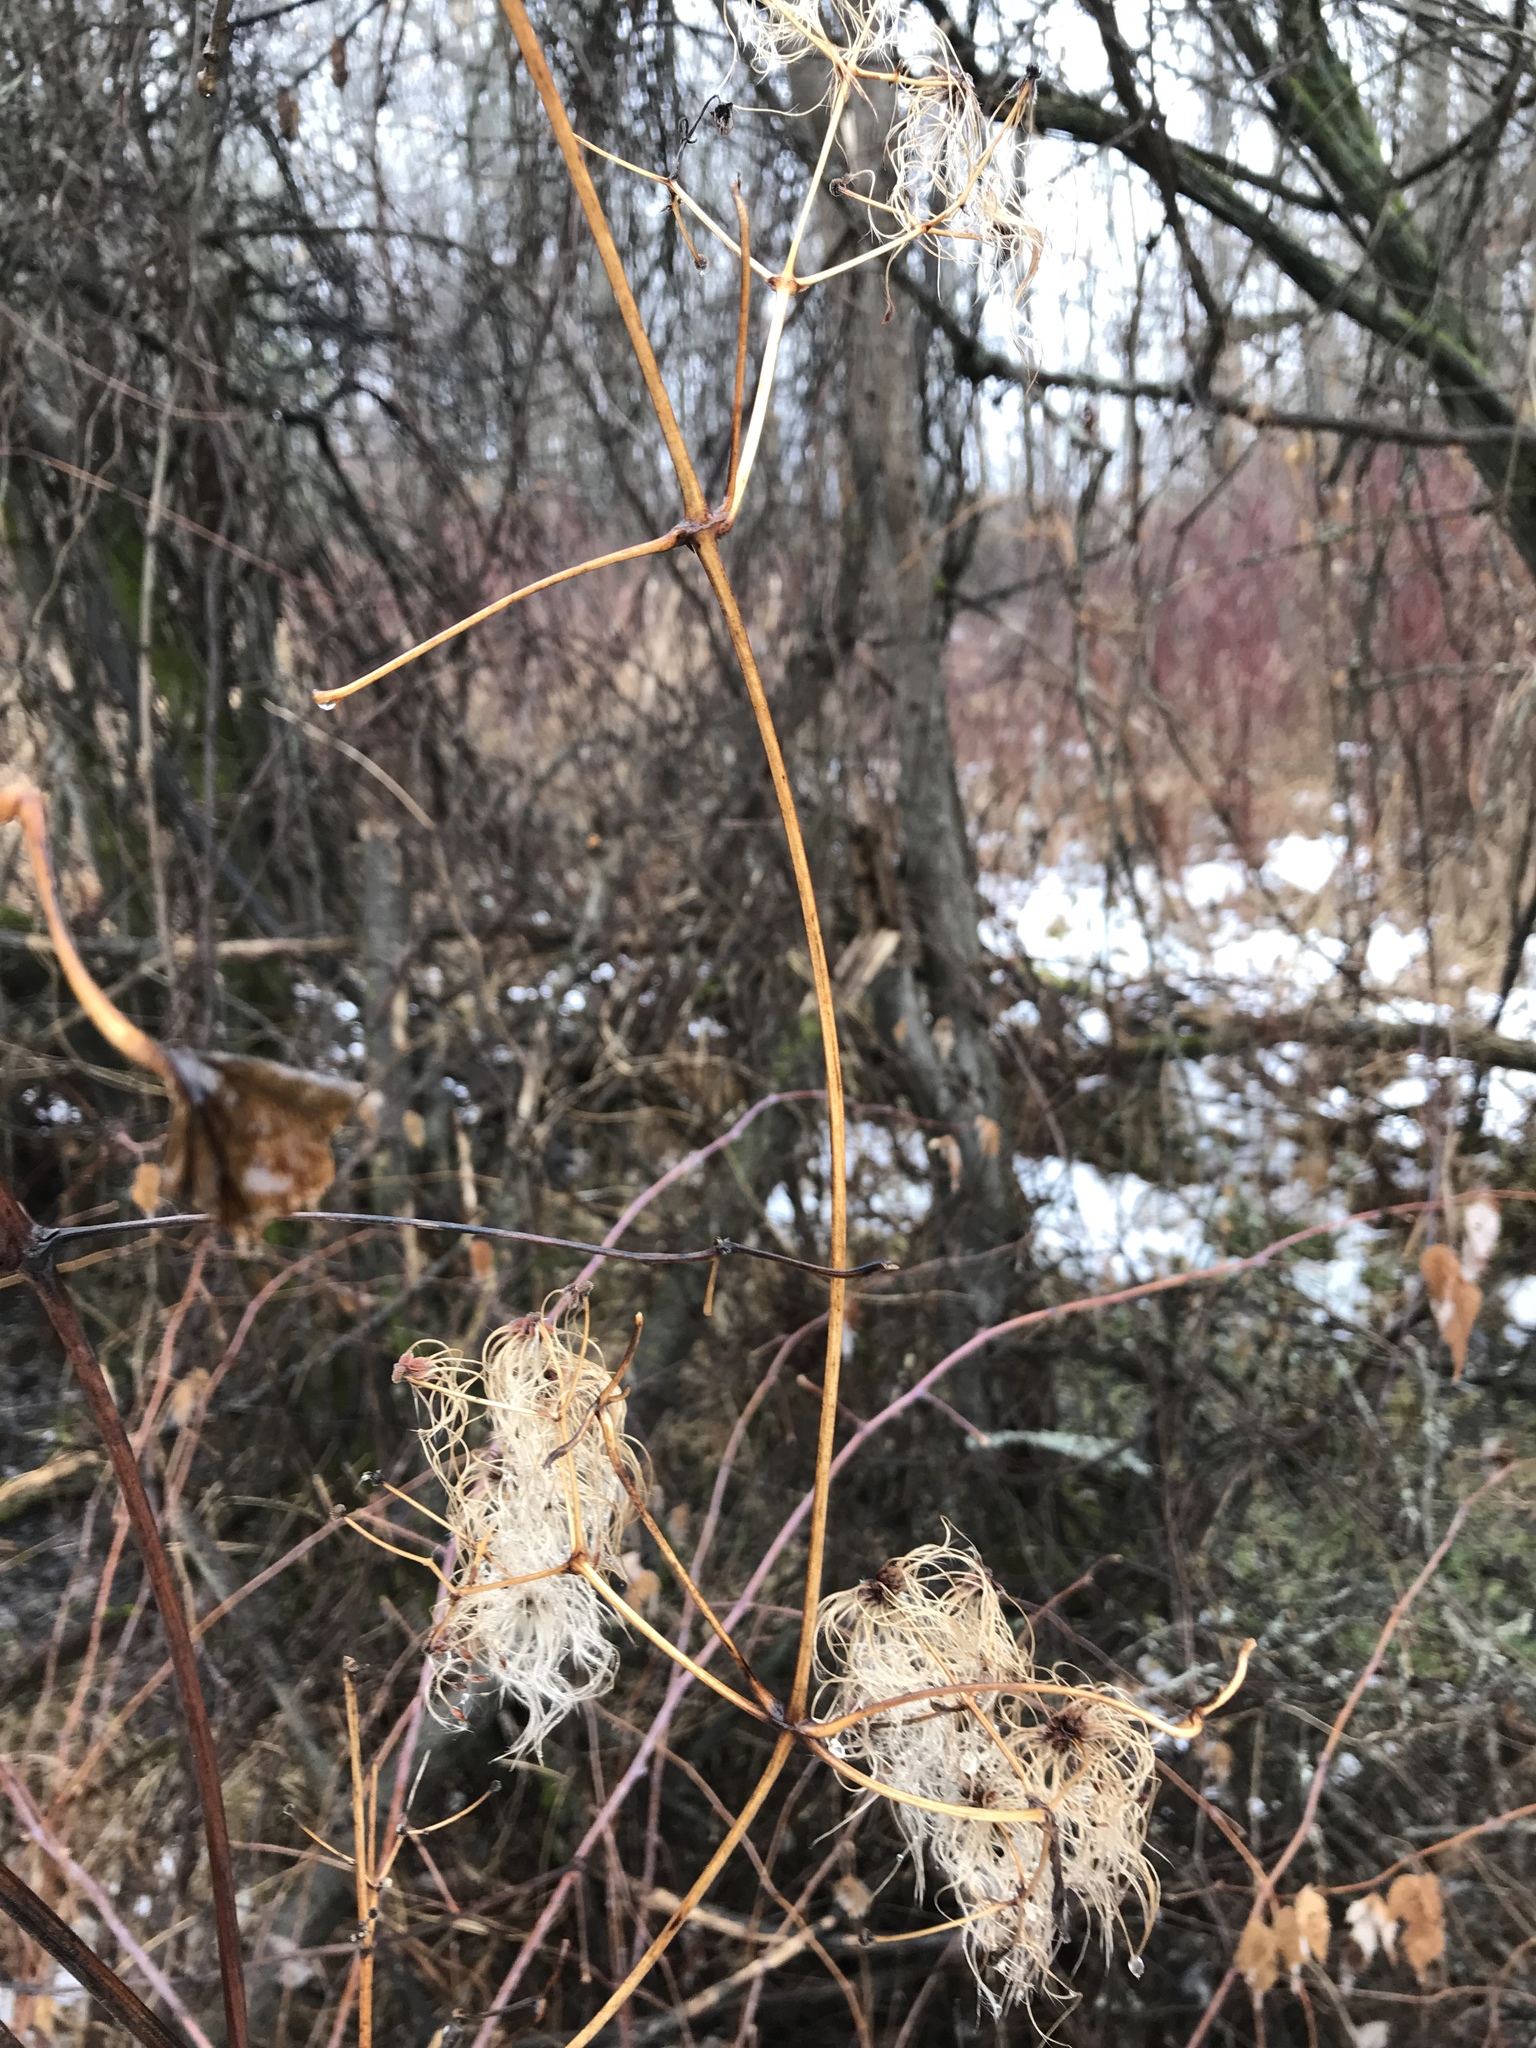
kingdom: Plantae
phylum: Tracheophyta
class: Magnoliopsida
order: Ranunculales
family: Ranunculaceae
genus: Clematis
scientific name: Clematis virginiana
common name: Virgin's-bower
